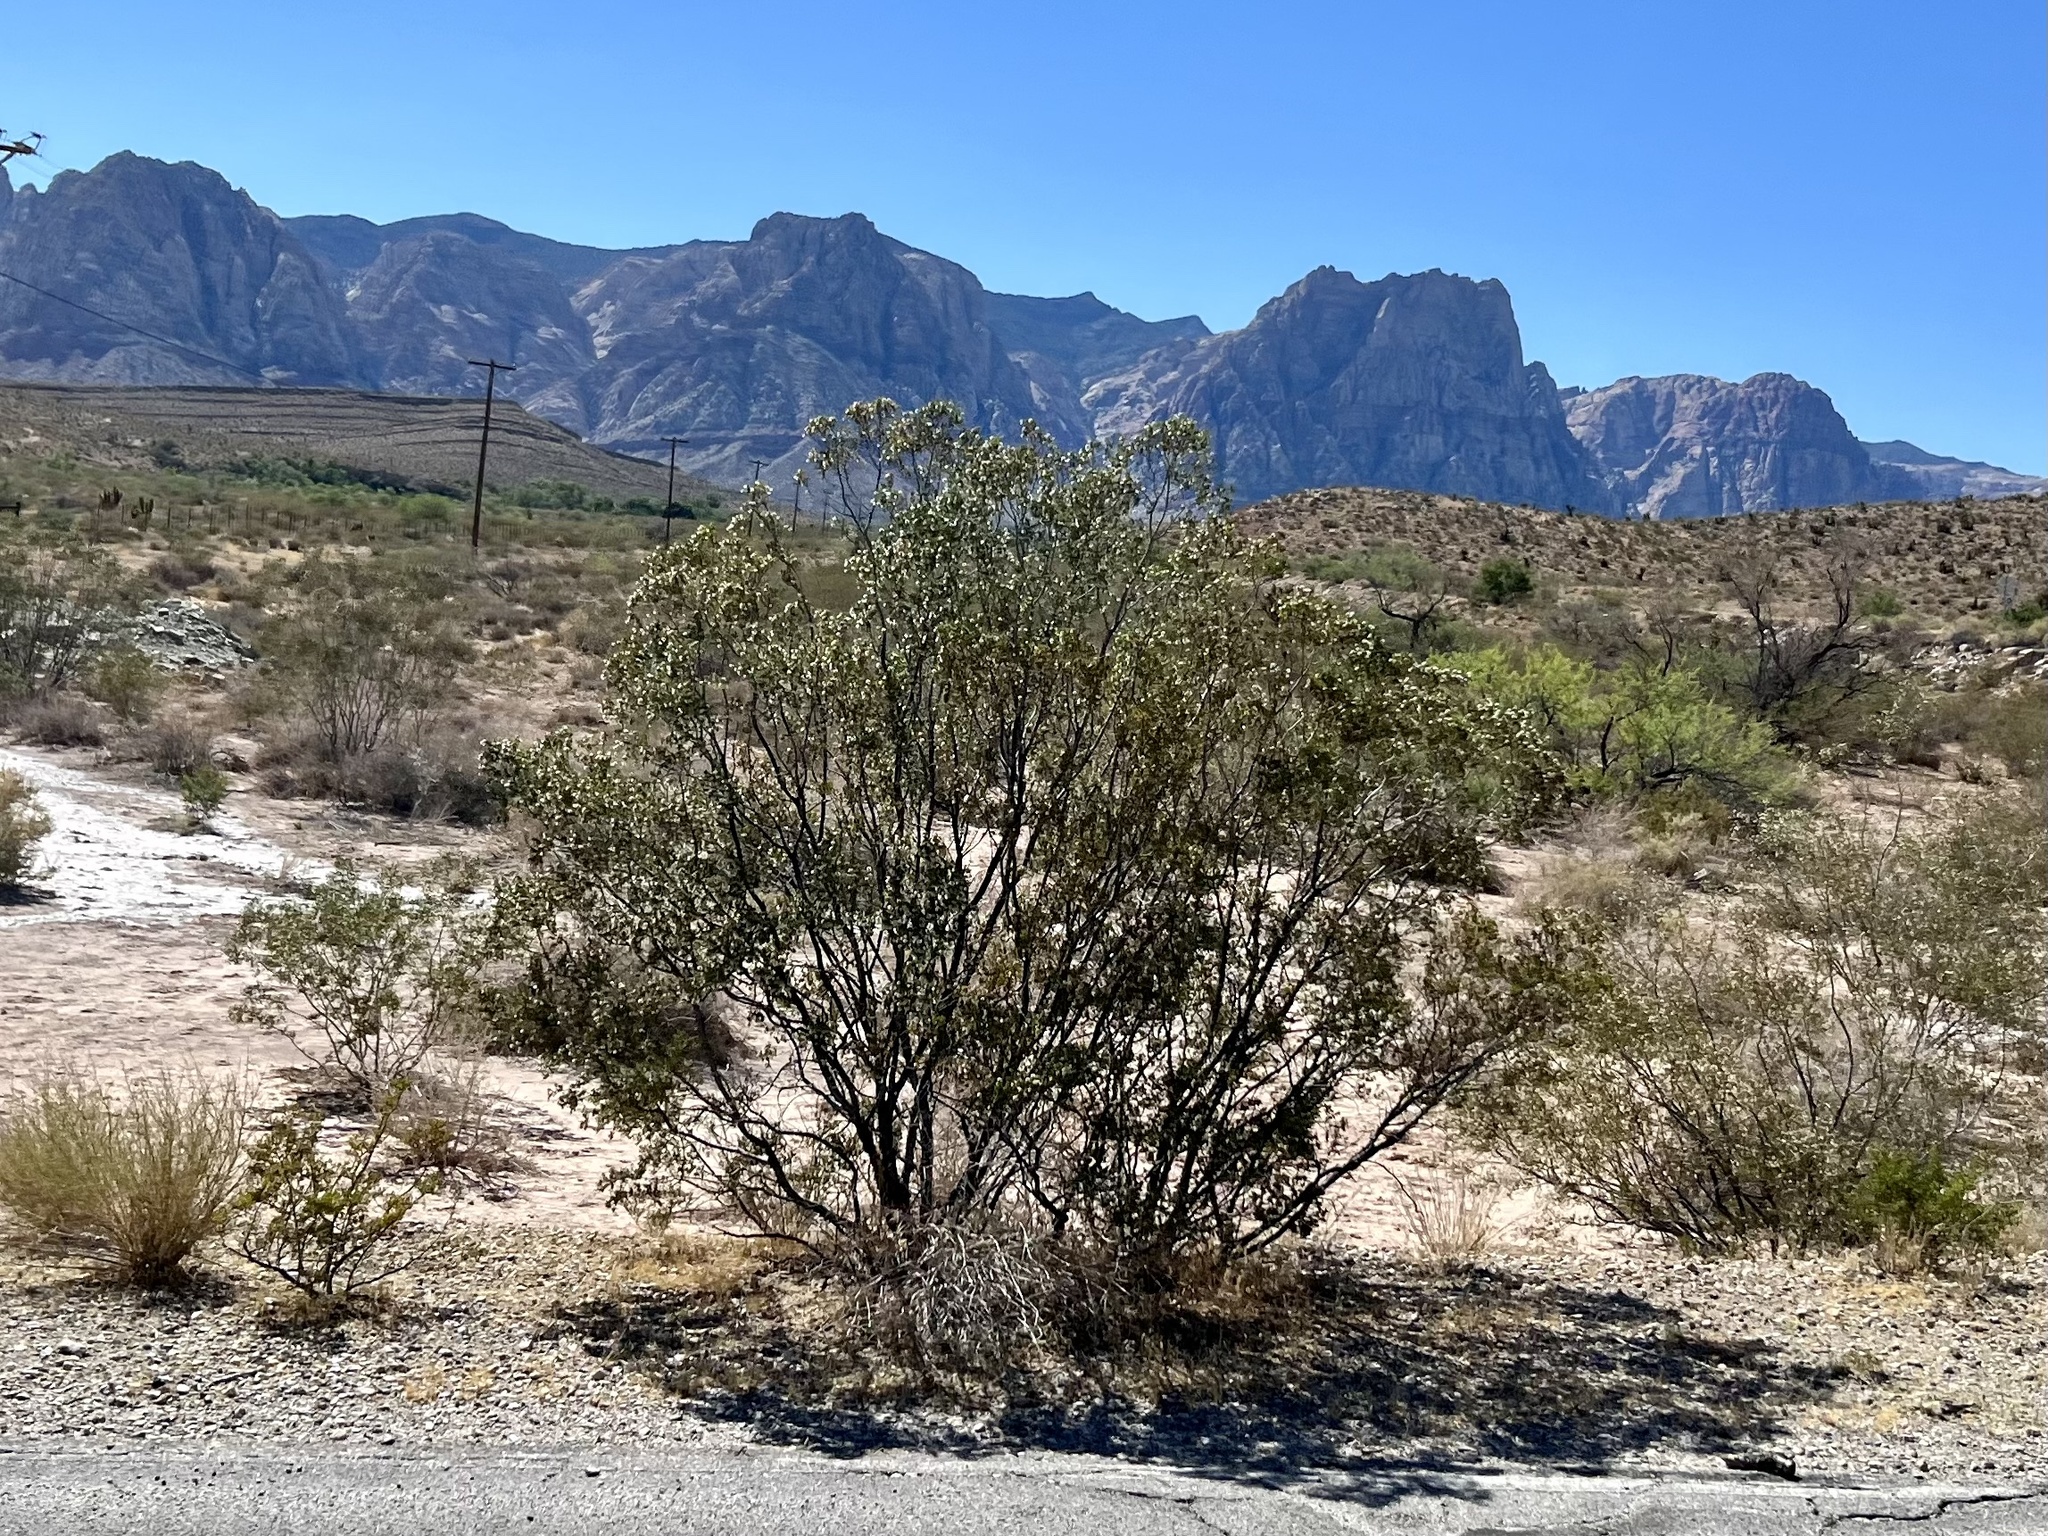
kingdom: Plantae
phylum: Tracheophyta
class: Magnoliopsida
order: Zygophyllales
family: Zygophyllaceae
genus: Larrea
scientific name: Larrea tridentata
